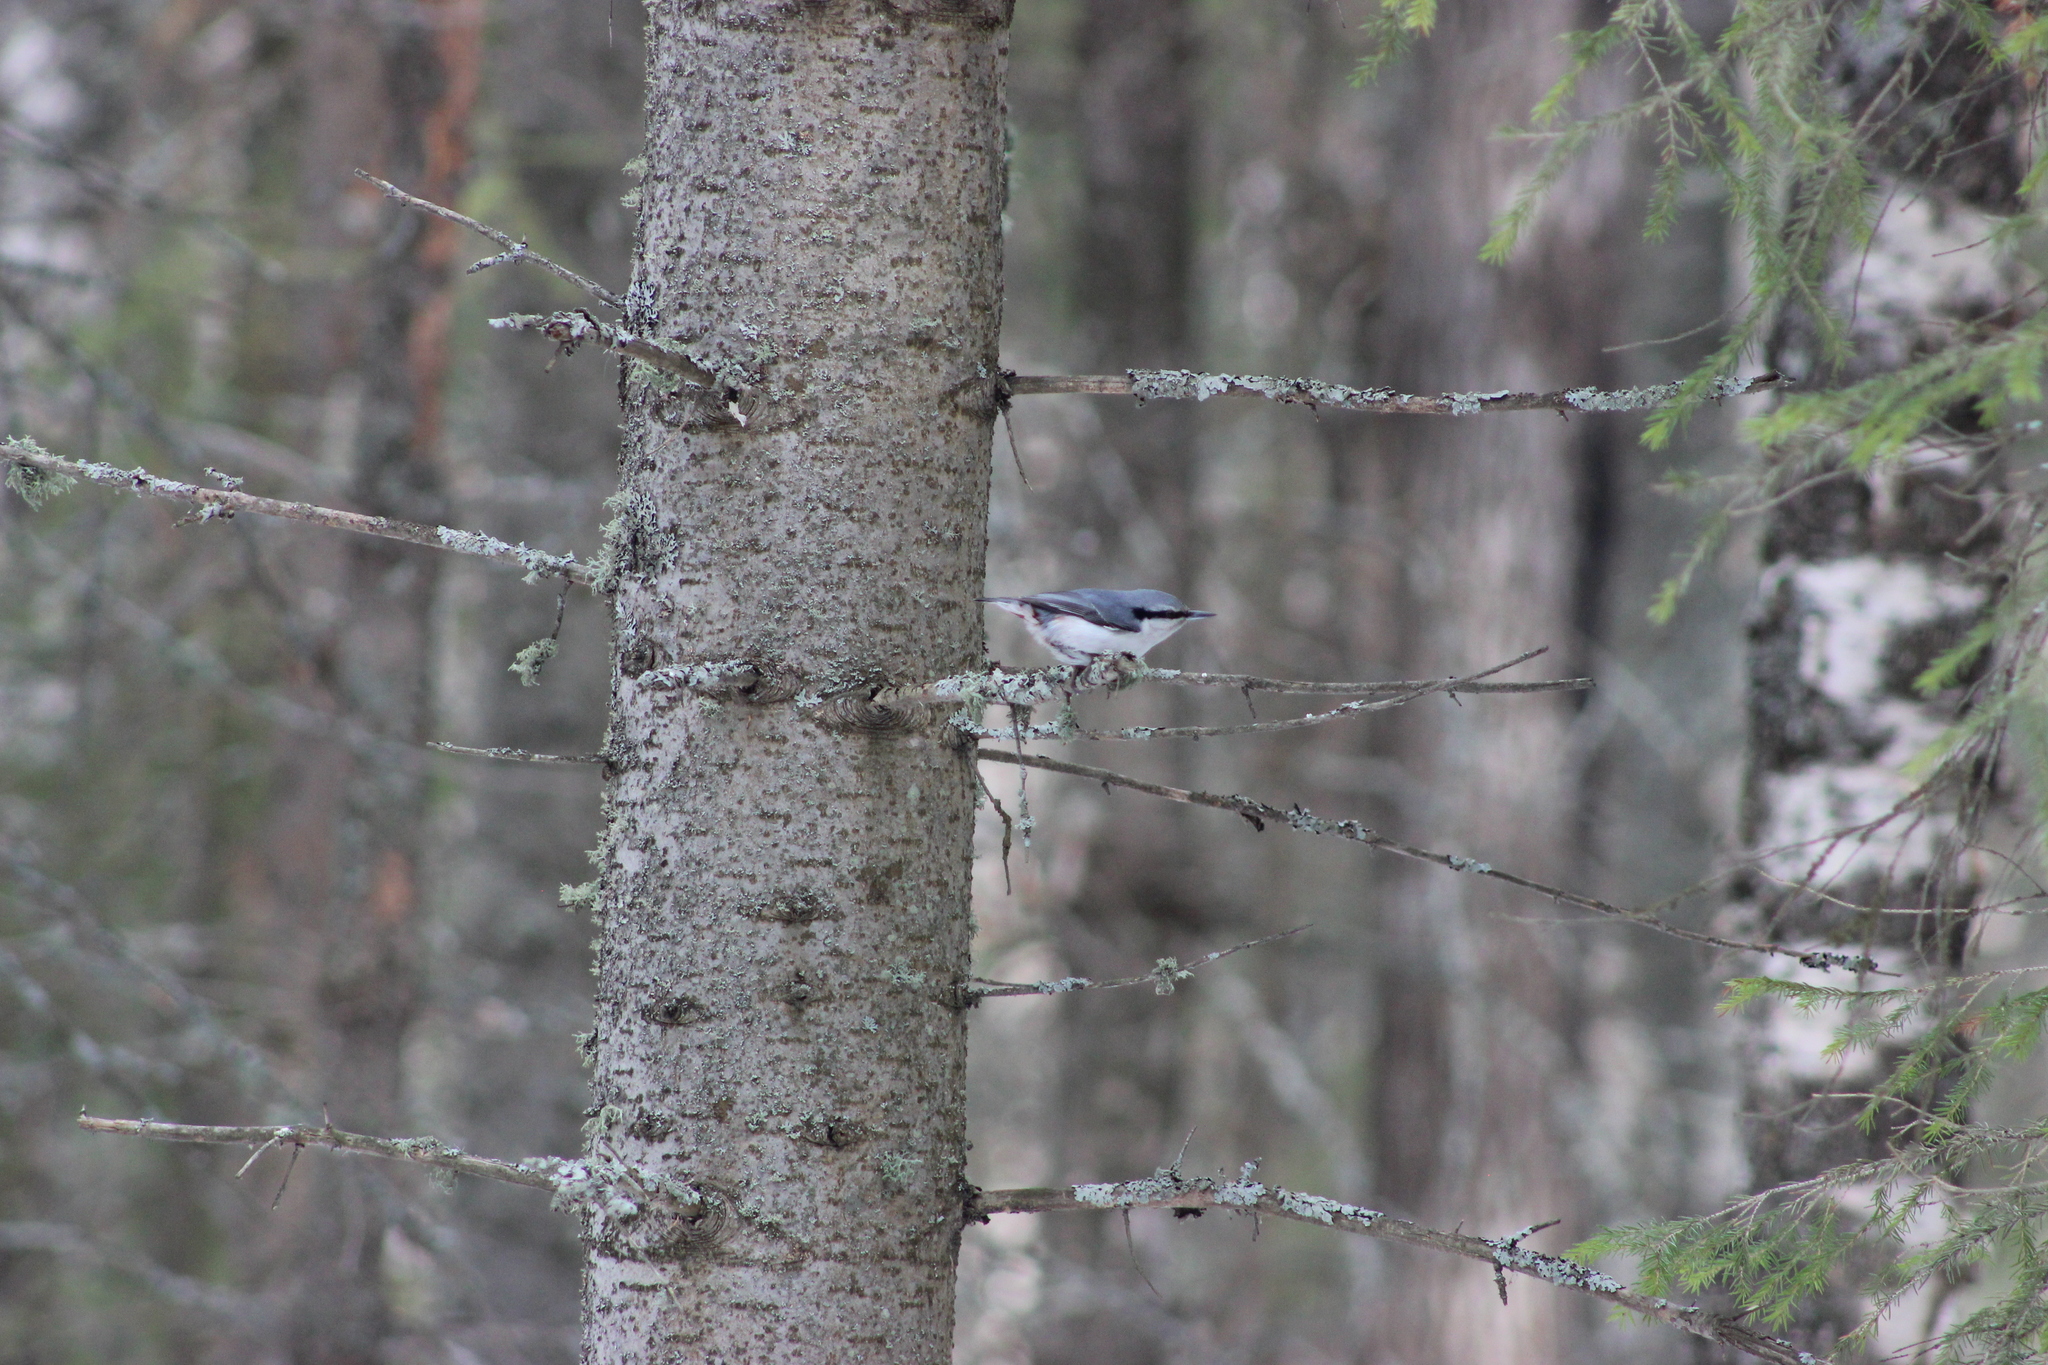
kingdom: Animalia
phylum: Chordata
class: Aves
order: Passeriformes
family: Sittidae
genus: Sitta
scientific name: Sitta europaea
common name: Eurasian nuthatch
